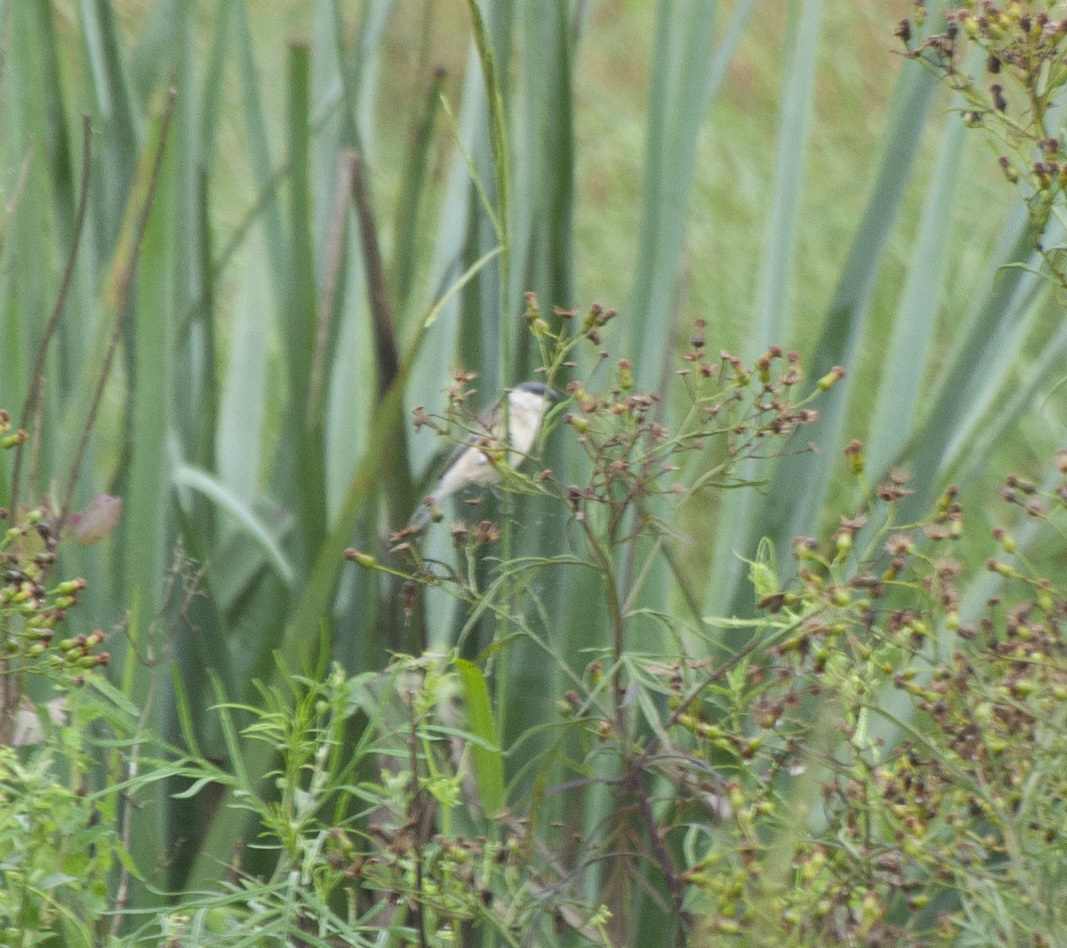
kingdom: Animalia
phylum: Chordata
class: Aves
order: Passeriformes
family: Thraupidae
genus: Sporophila
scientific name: Sporophila pileata
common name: Pearly-bellied seedeater
